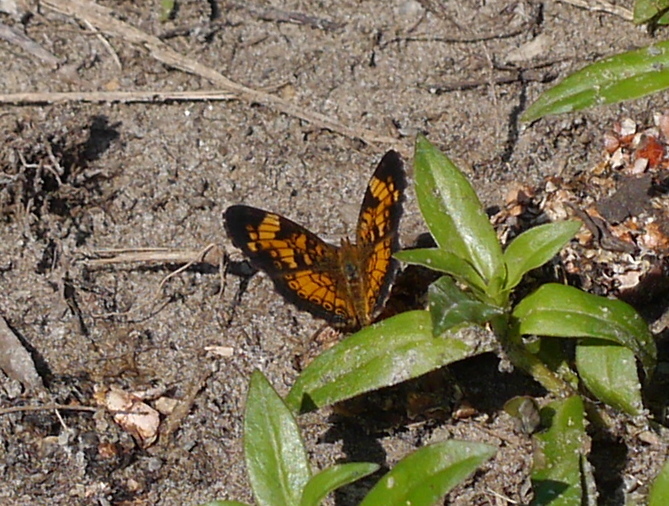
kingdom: Animalia
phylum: Arthropoda
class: Insecta
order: Lepidoptera
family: Nymphalidae
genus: Phyciodes
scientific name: Phyciodes tharos
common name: Pearl crescent
